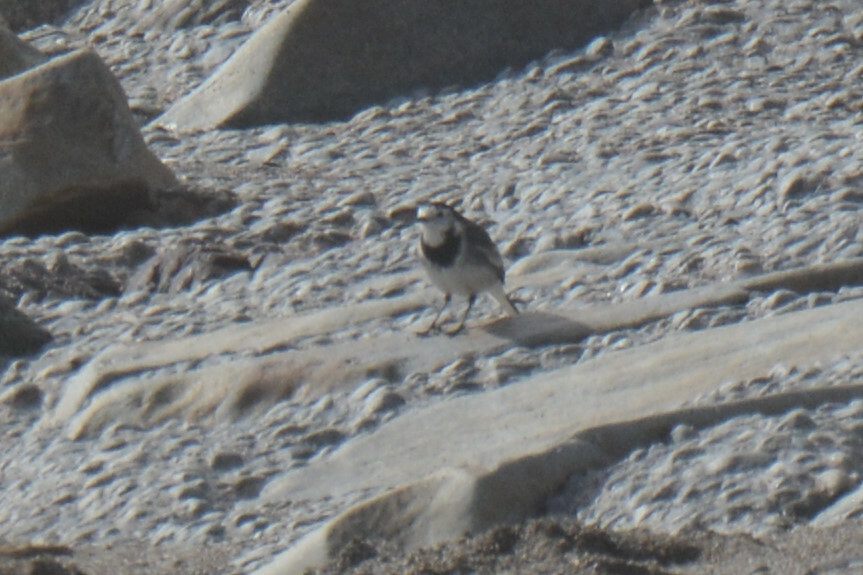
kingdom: Animalia
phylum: Chordata
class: Aves
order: Passeriformes
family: Motacillidae
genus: Motacilla
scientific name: Motacilla alba
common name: White wagtail
